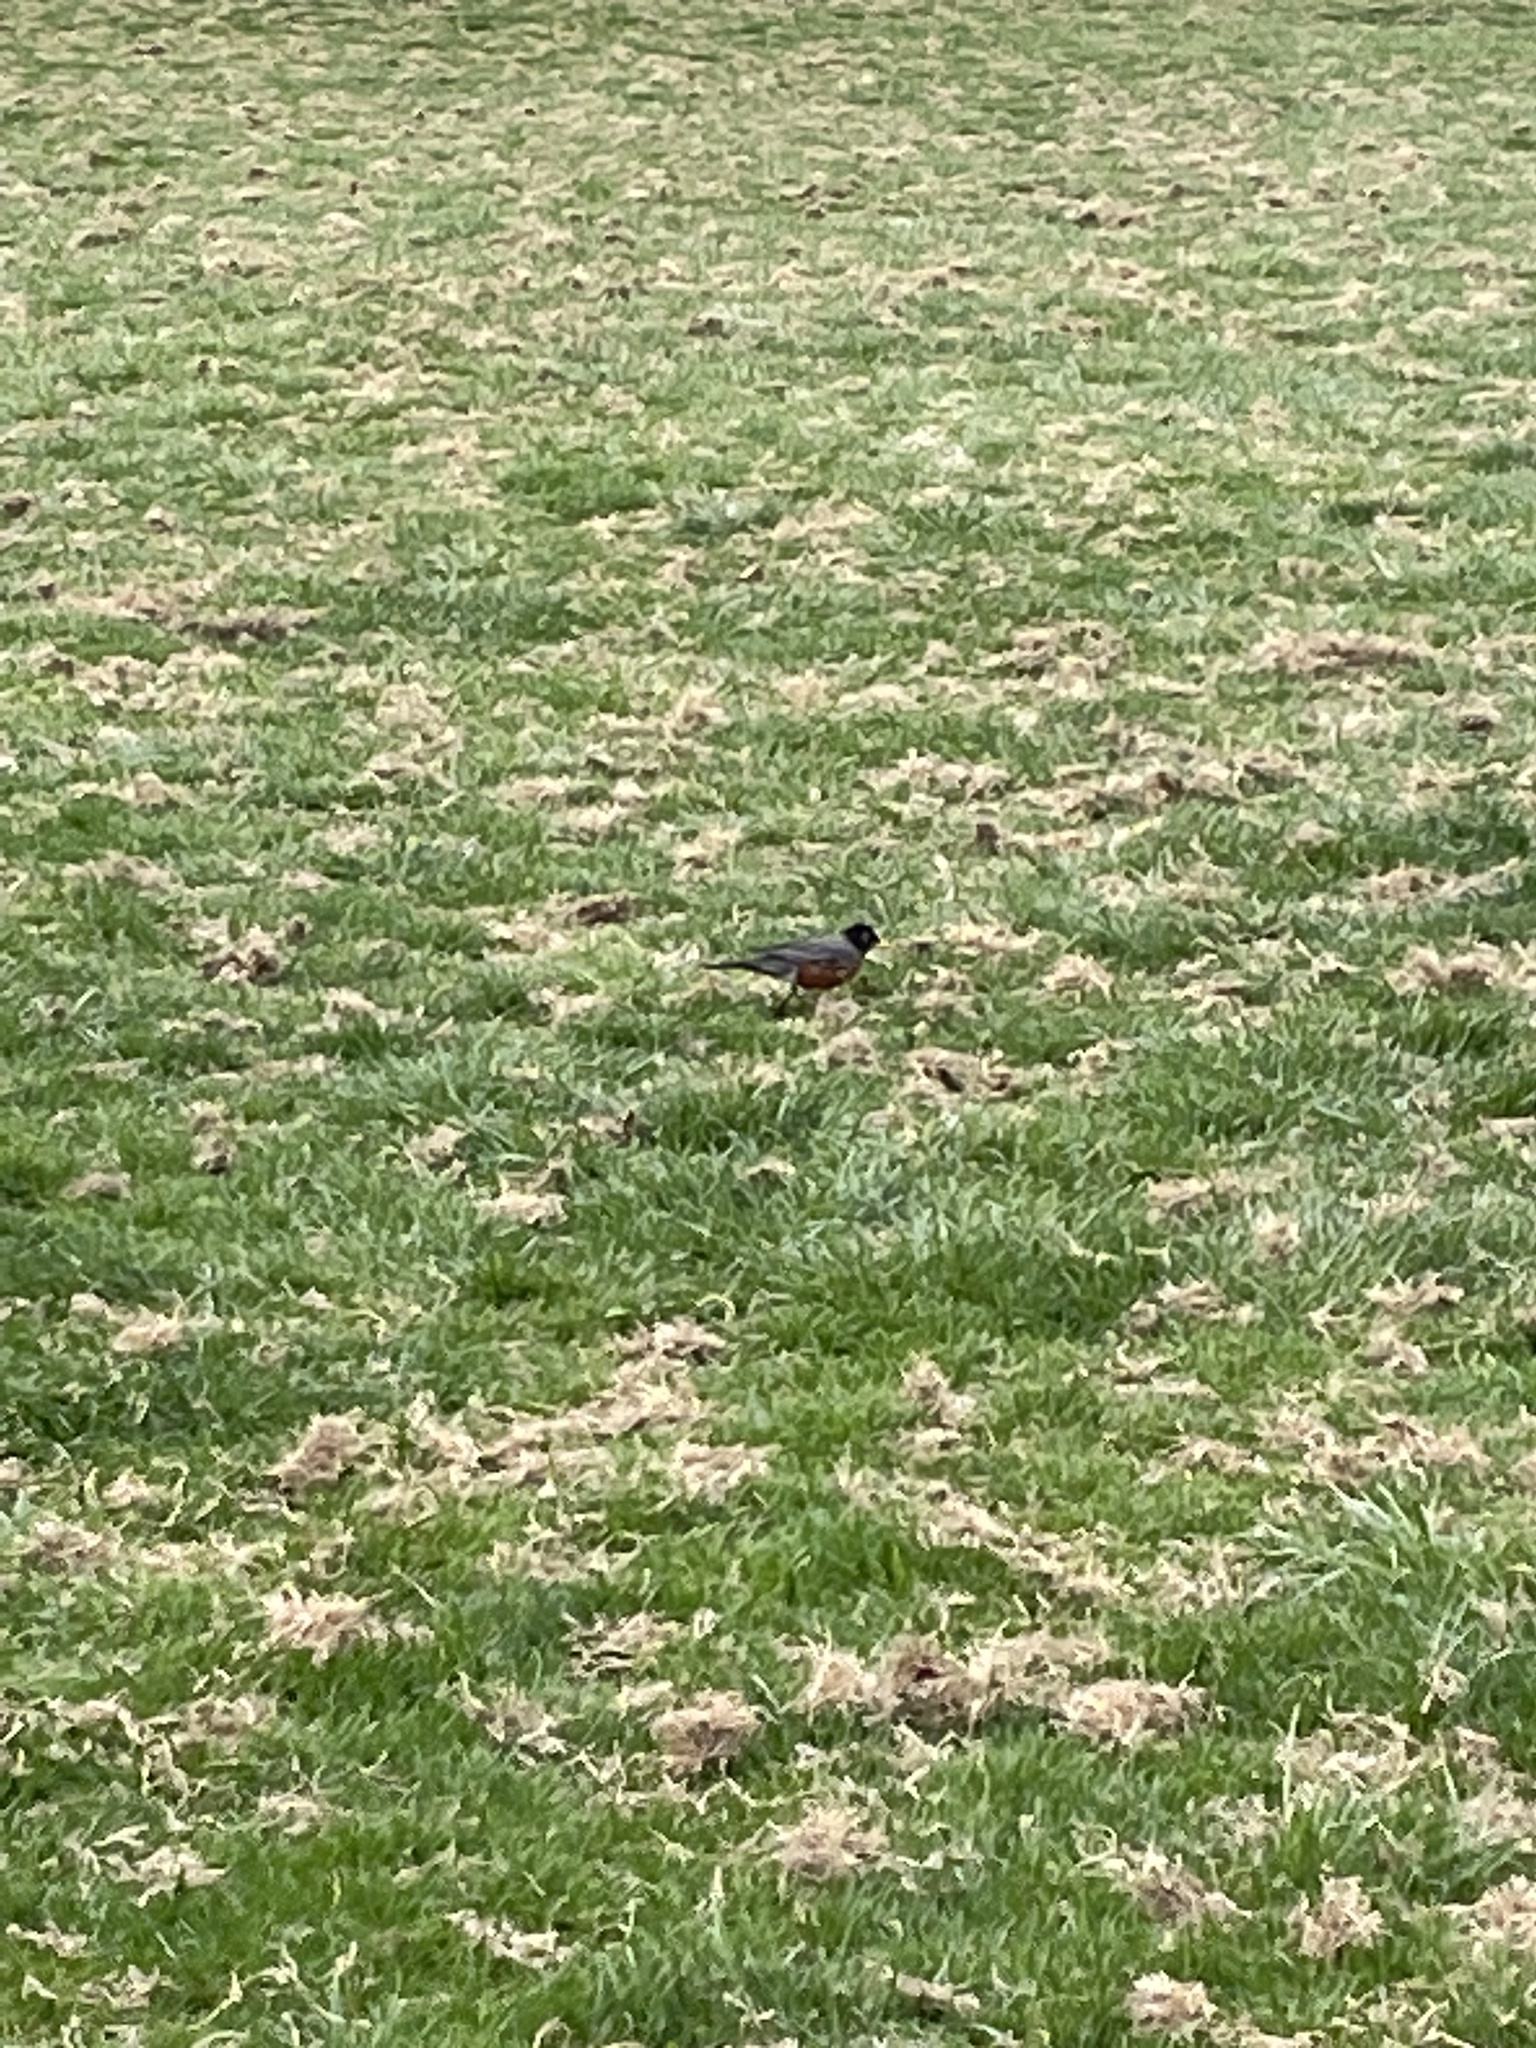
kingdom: Animalia
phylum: Chordata
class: Aves
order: Passeriformes
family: Turdidae
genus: Turdus
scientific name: Turdus migratorius
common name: American robin
